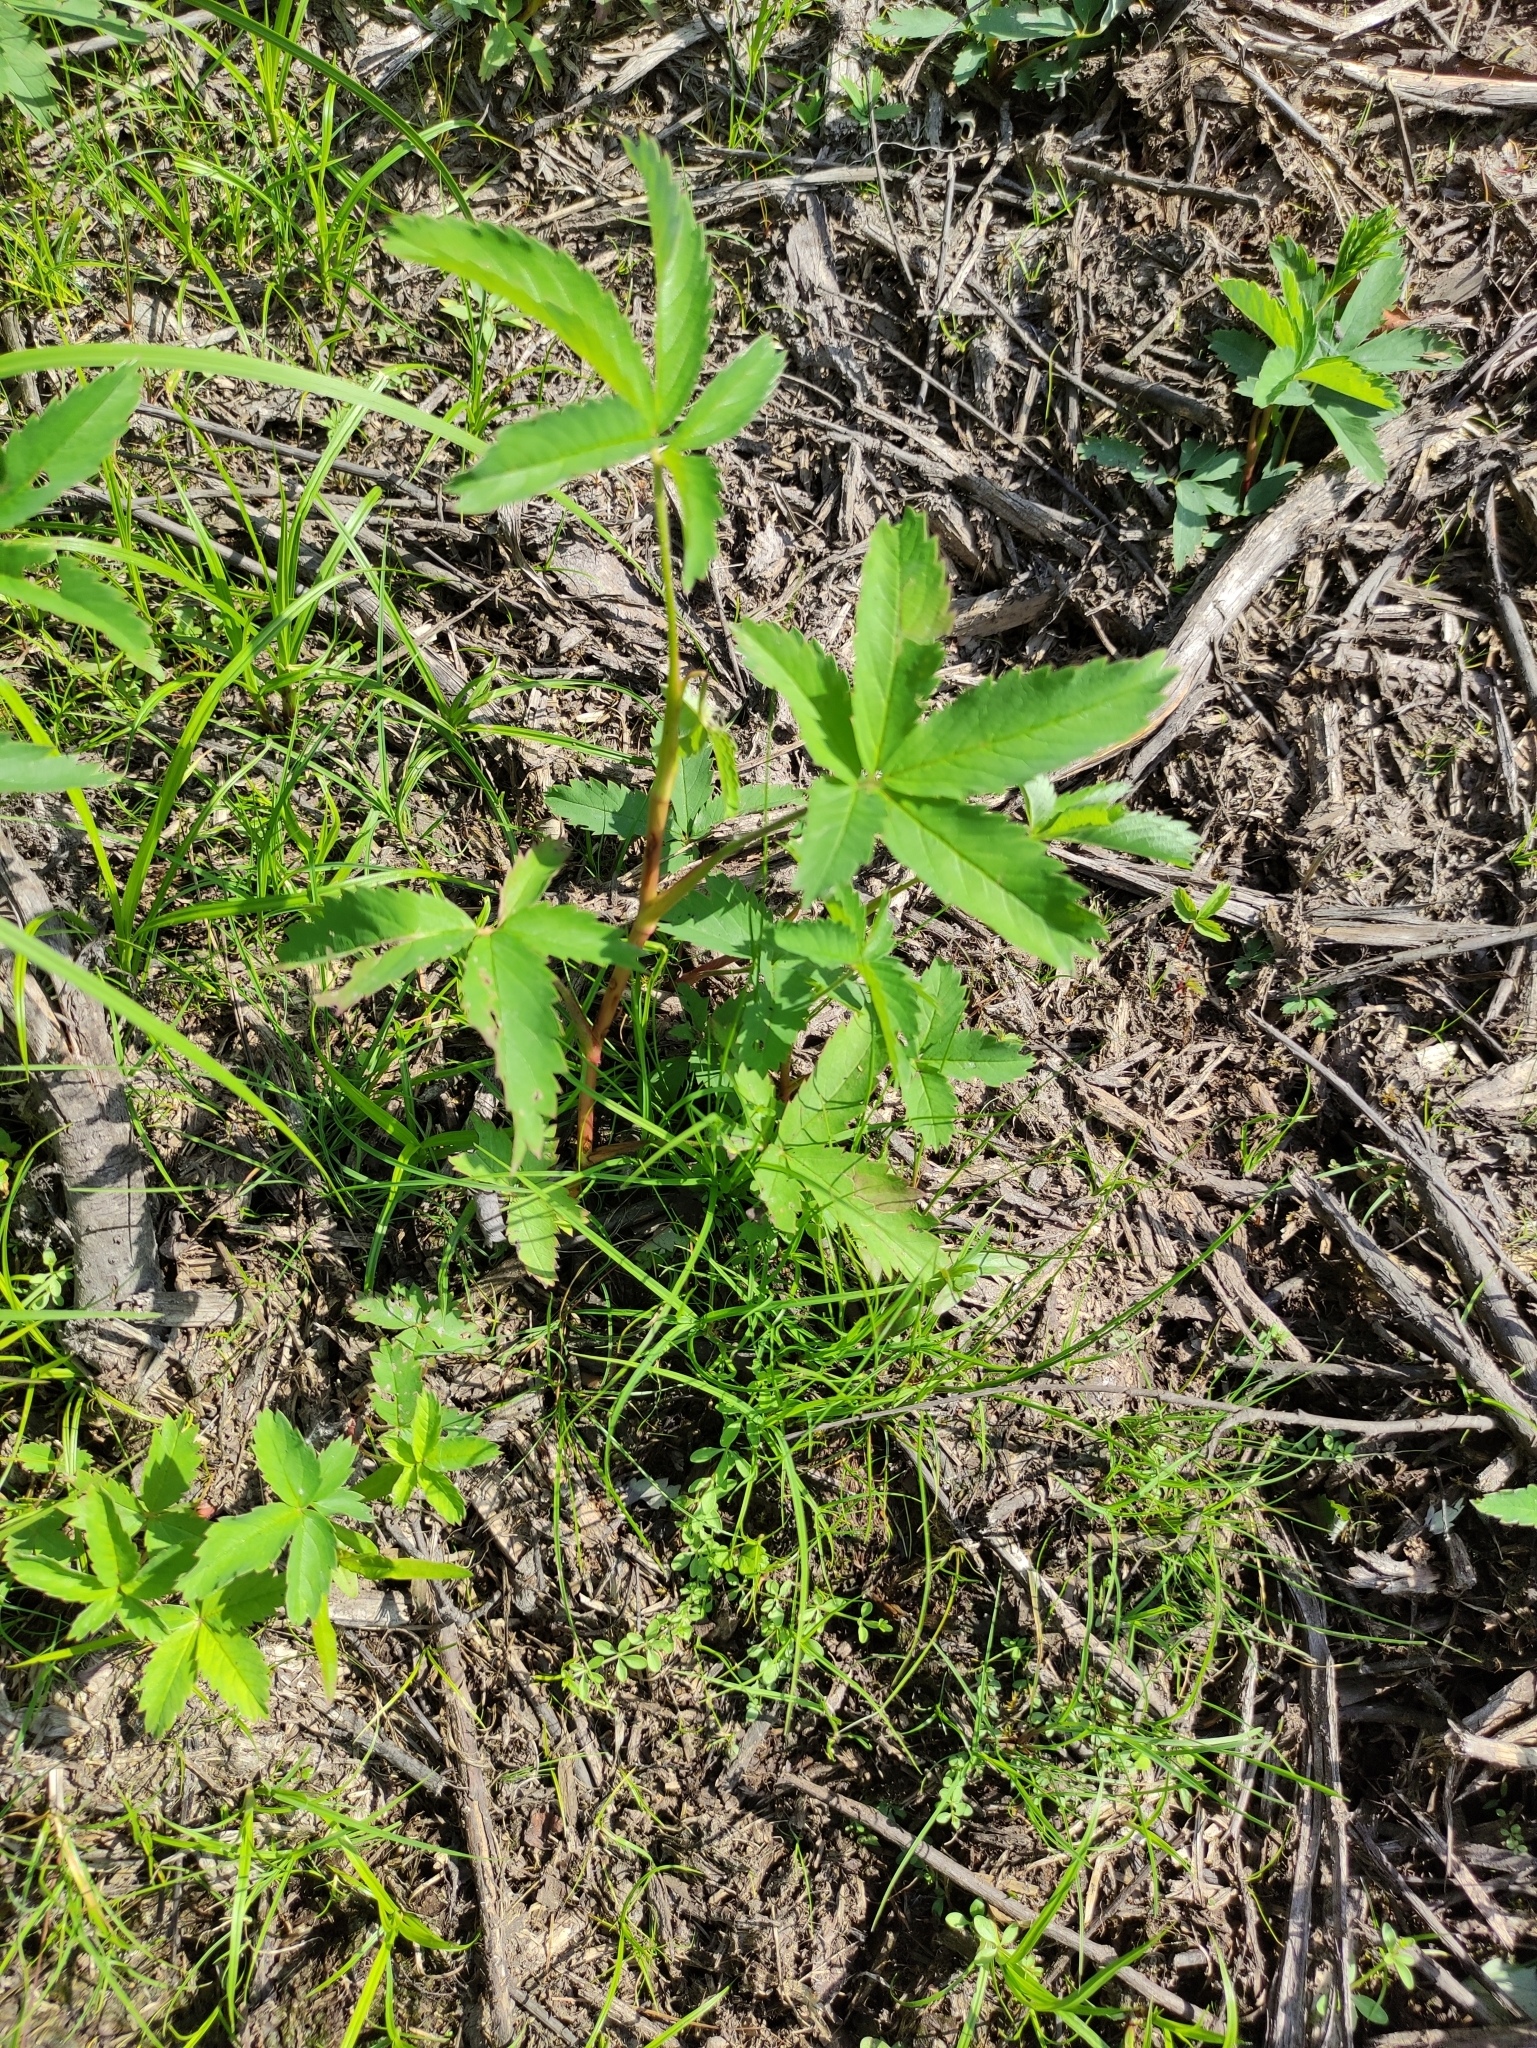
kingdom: Plantae
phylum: Tracheophyta
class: Magnoliopsida
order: Rosales
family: Rosaceae
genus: Comarum
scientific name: Comarum palustre
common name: Marsh cinquefoil
